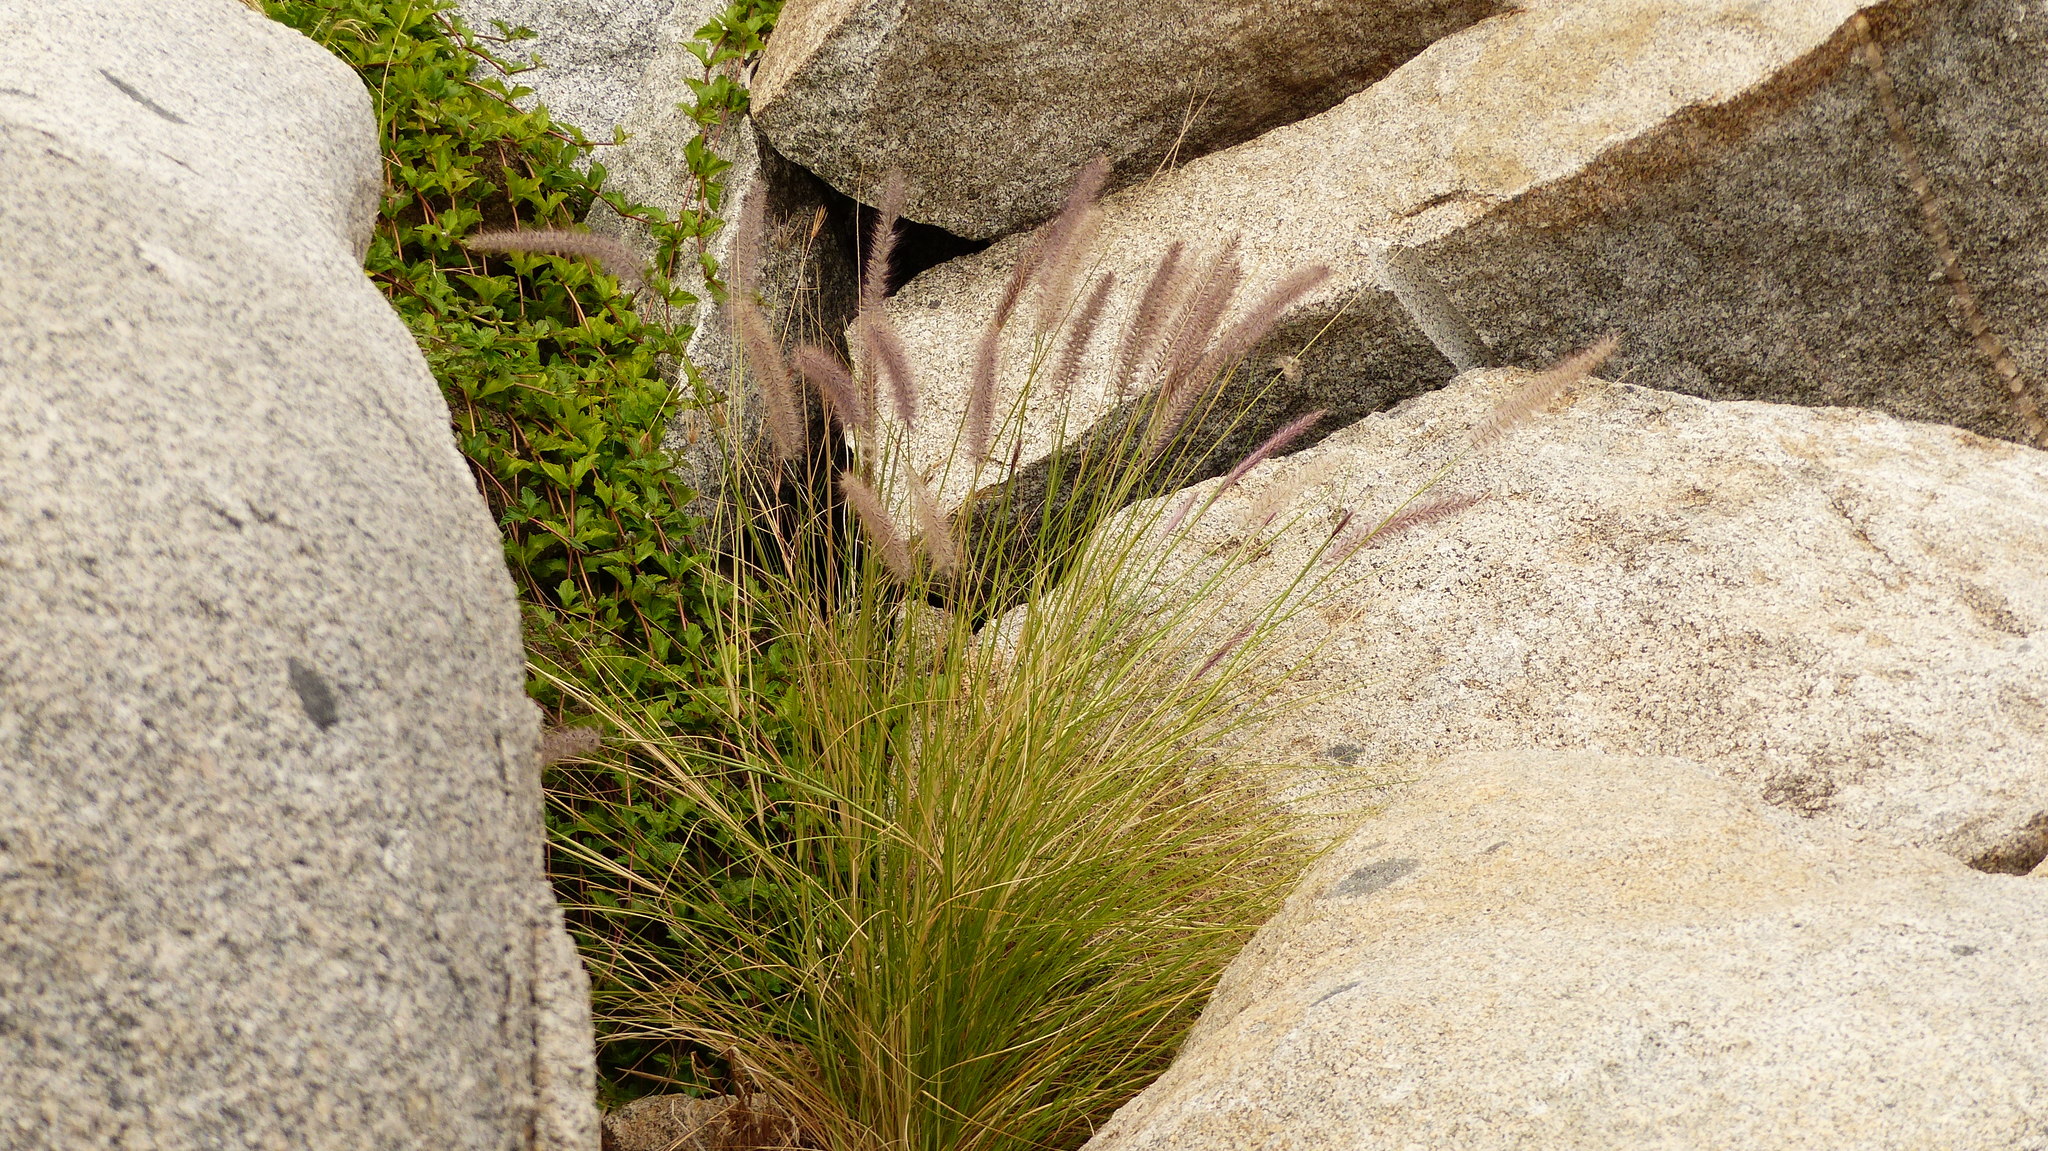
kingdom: Plantae
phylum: Tracheophyta
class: Liliopsida
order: Poales
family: Poaceae
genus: Cenchrus
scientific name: Cenchrus setaceus
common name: Crimson fountaingrass
